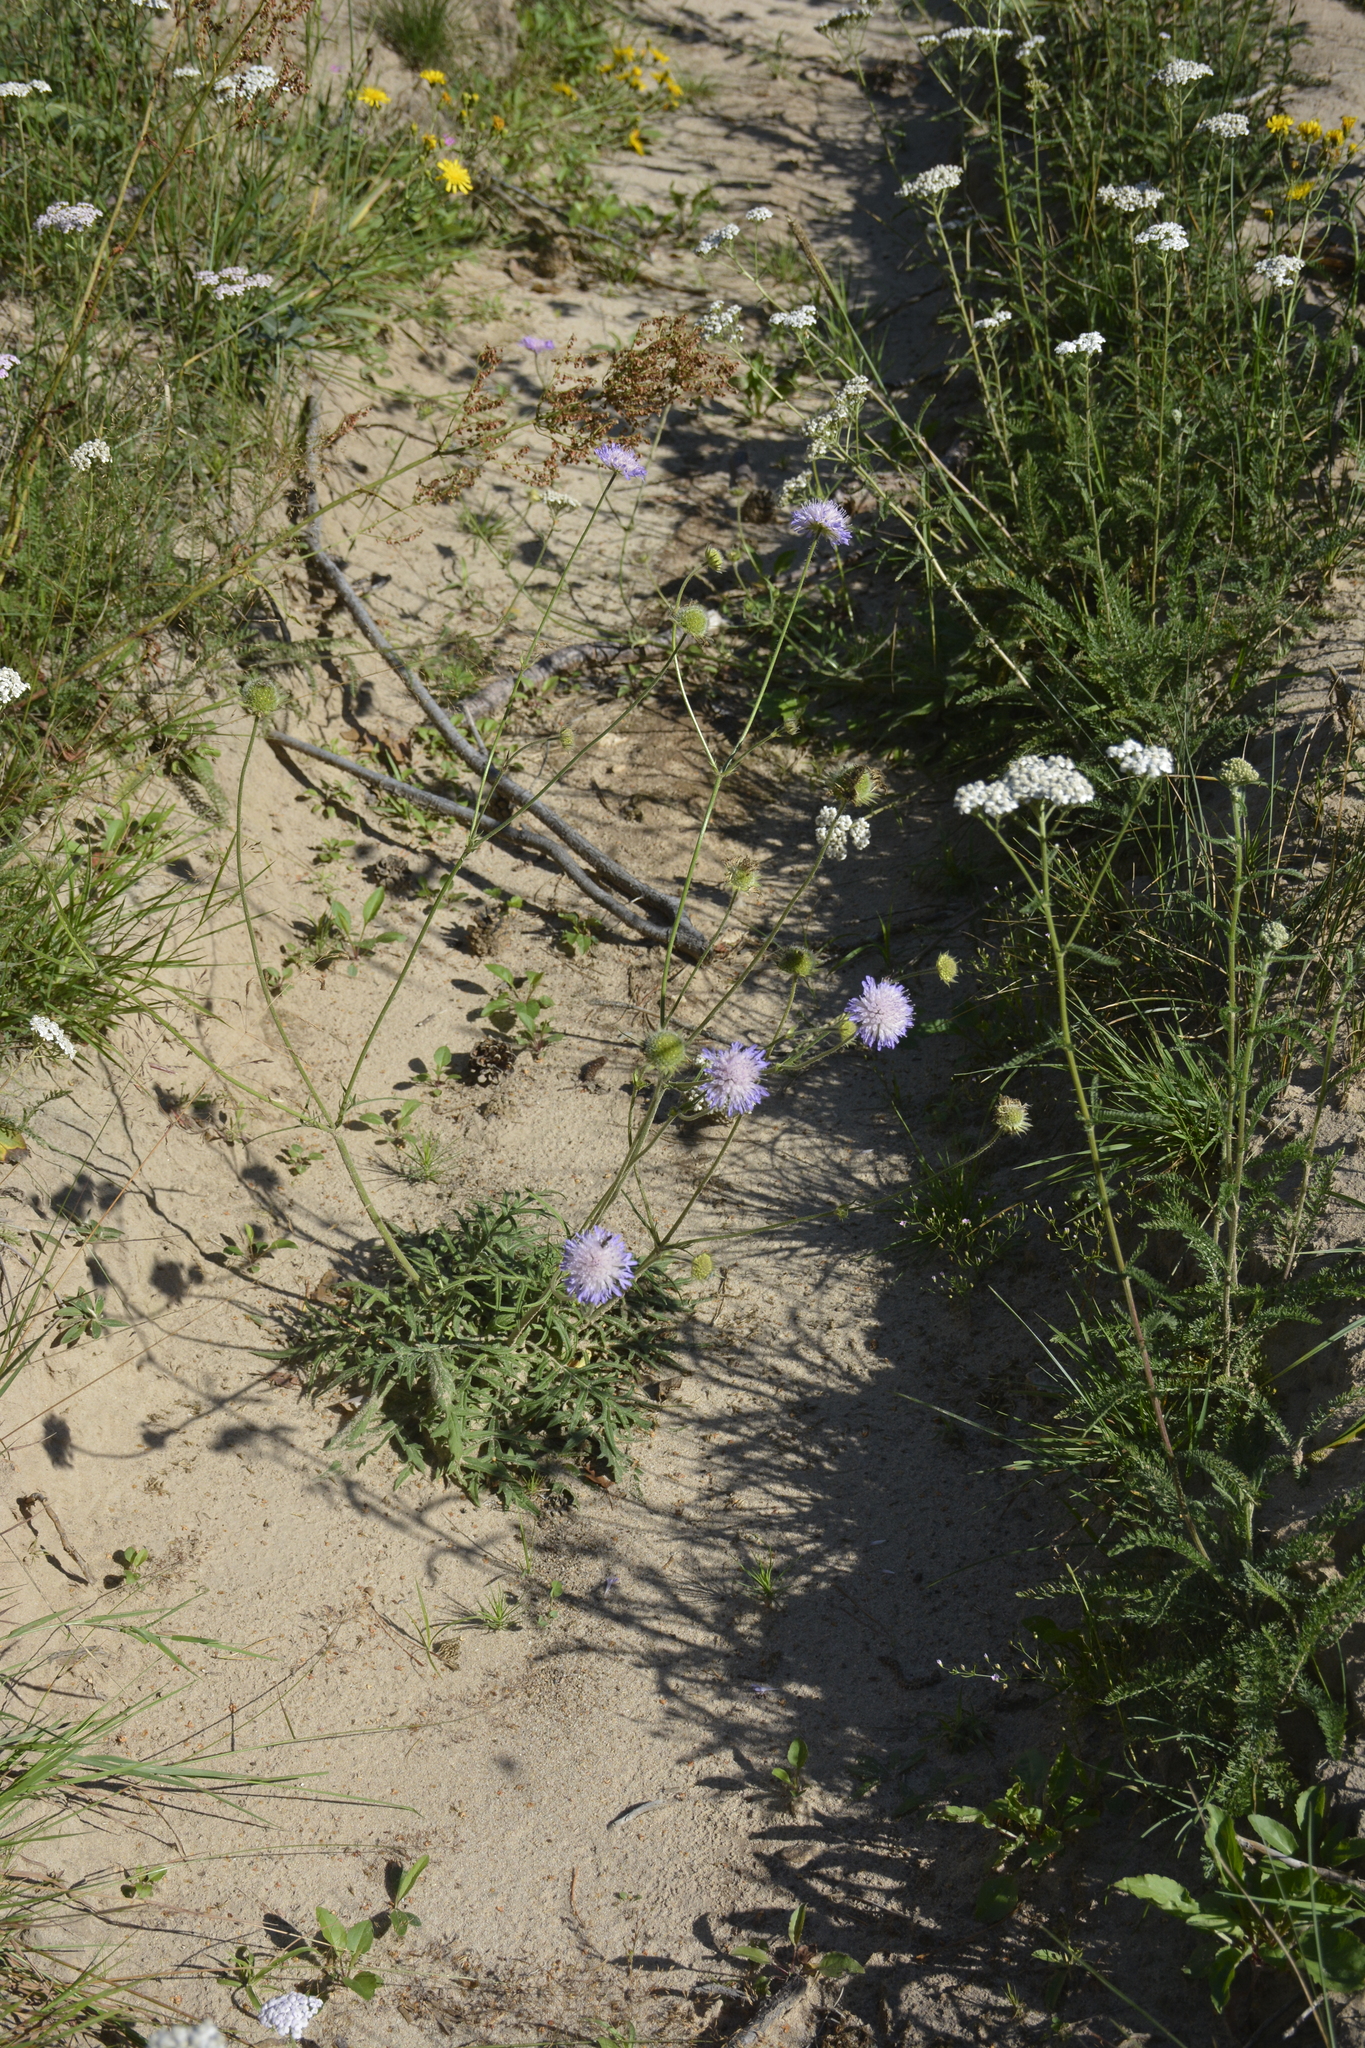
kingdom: Plantae
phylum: Tracheophyta
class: Magnoliopsida
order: Dipsacales
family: Caprifoliaceae
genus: Knautia
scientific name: Knautia arvensis
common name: Field scabiosa
